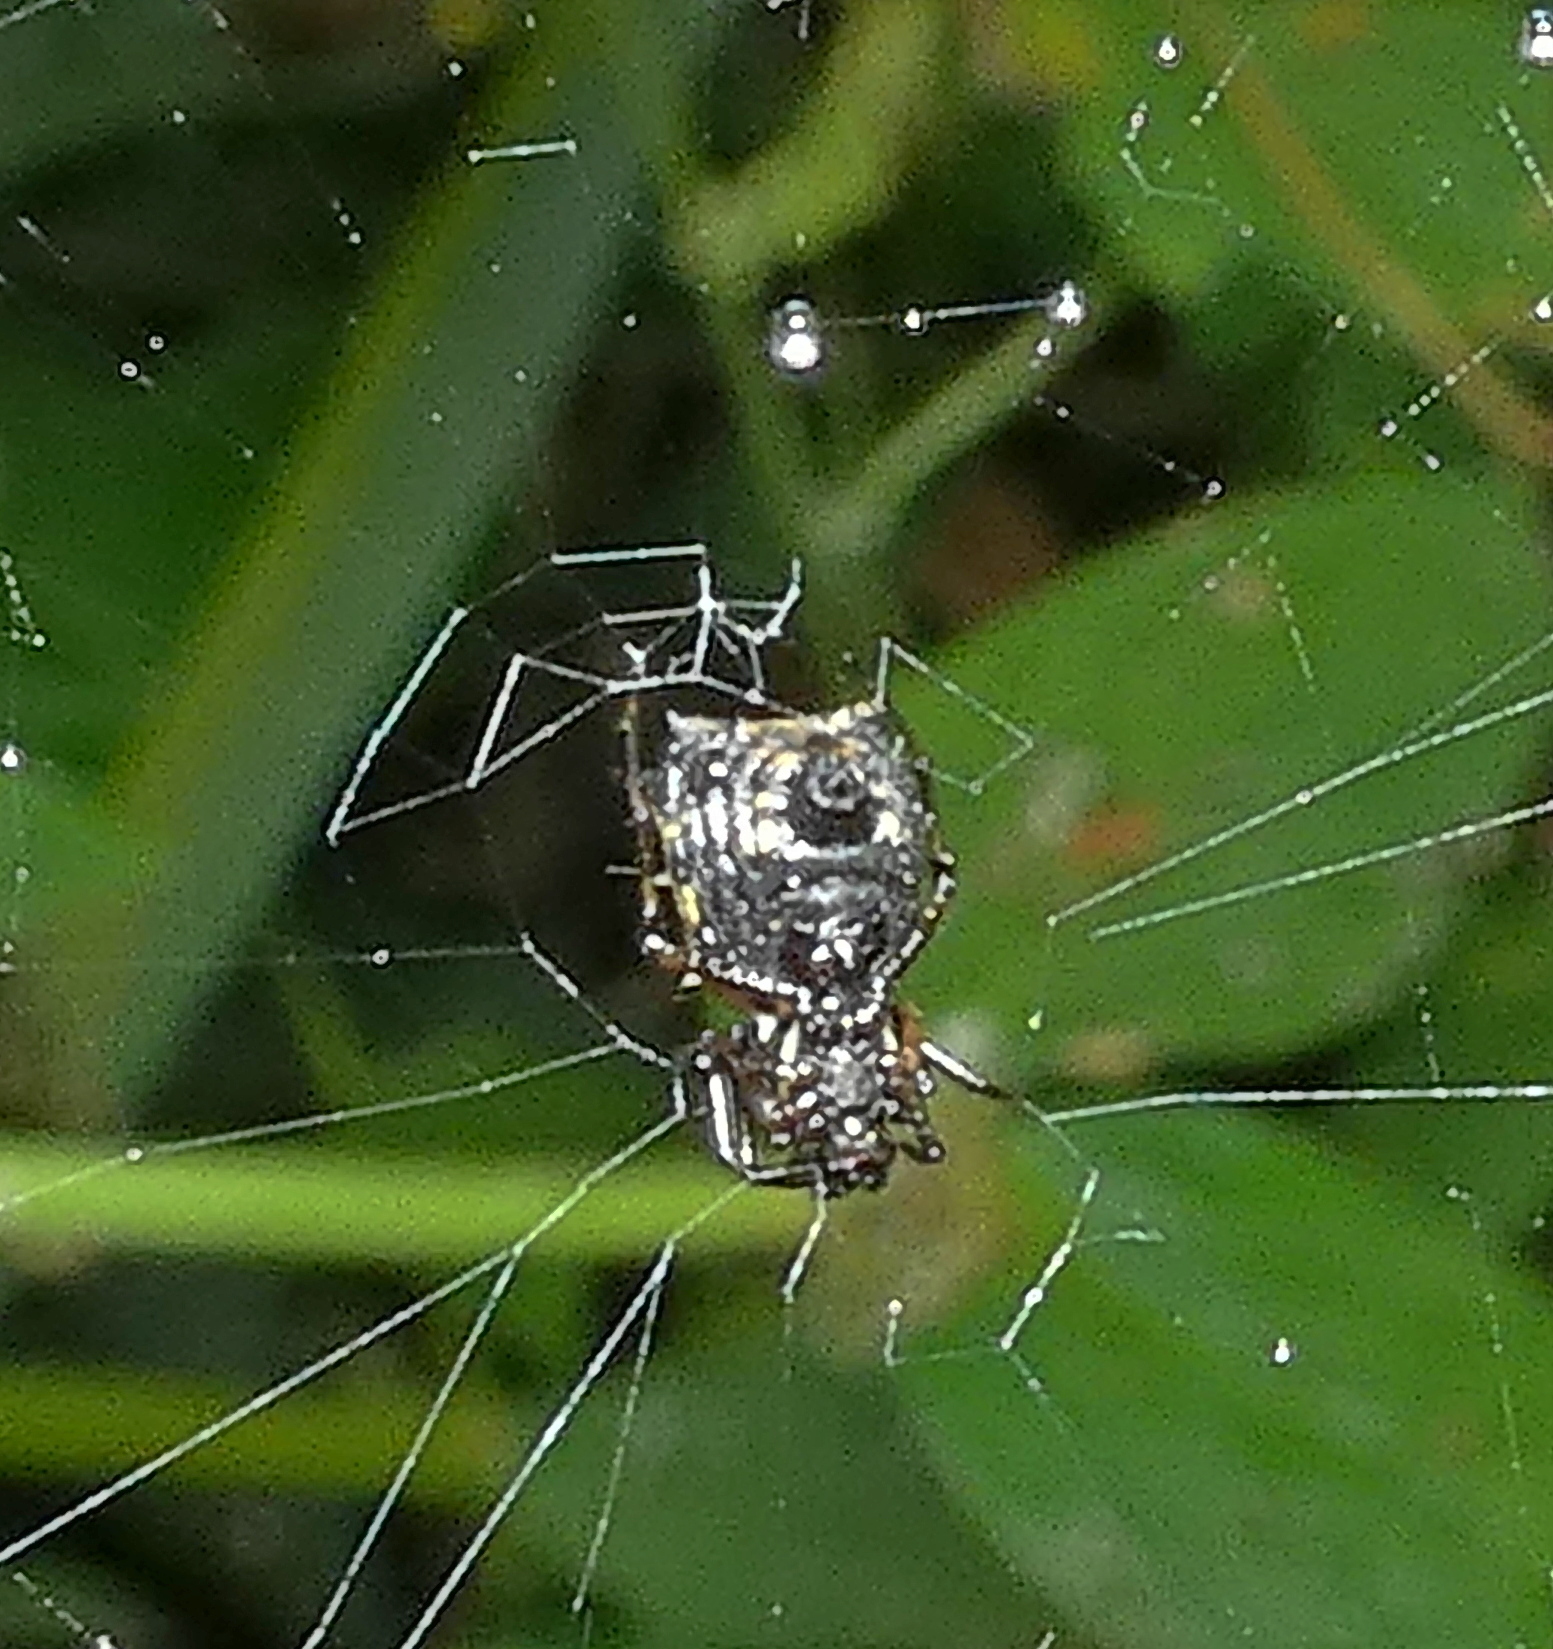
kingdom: Animalia
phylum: Arthropoda
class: Arachnida
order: Araneae
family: Araneidae
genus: Micrathena
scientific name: Micrathena picta
